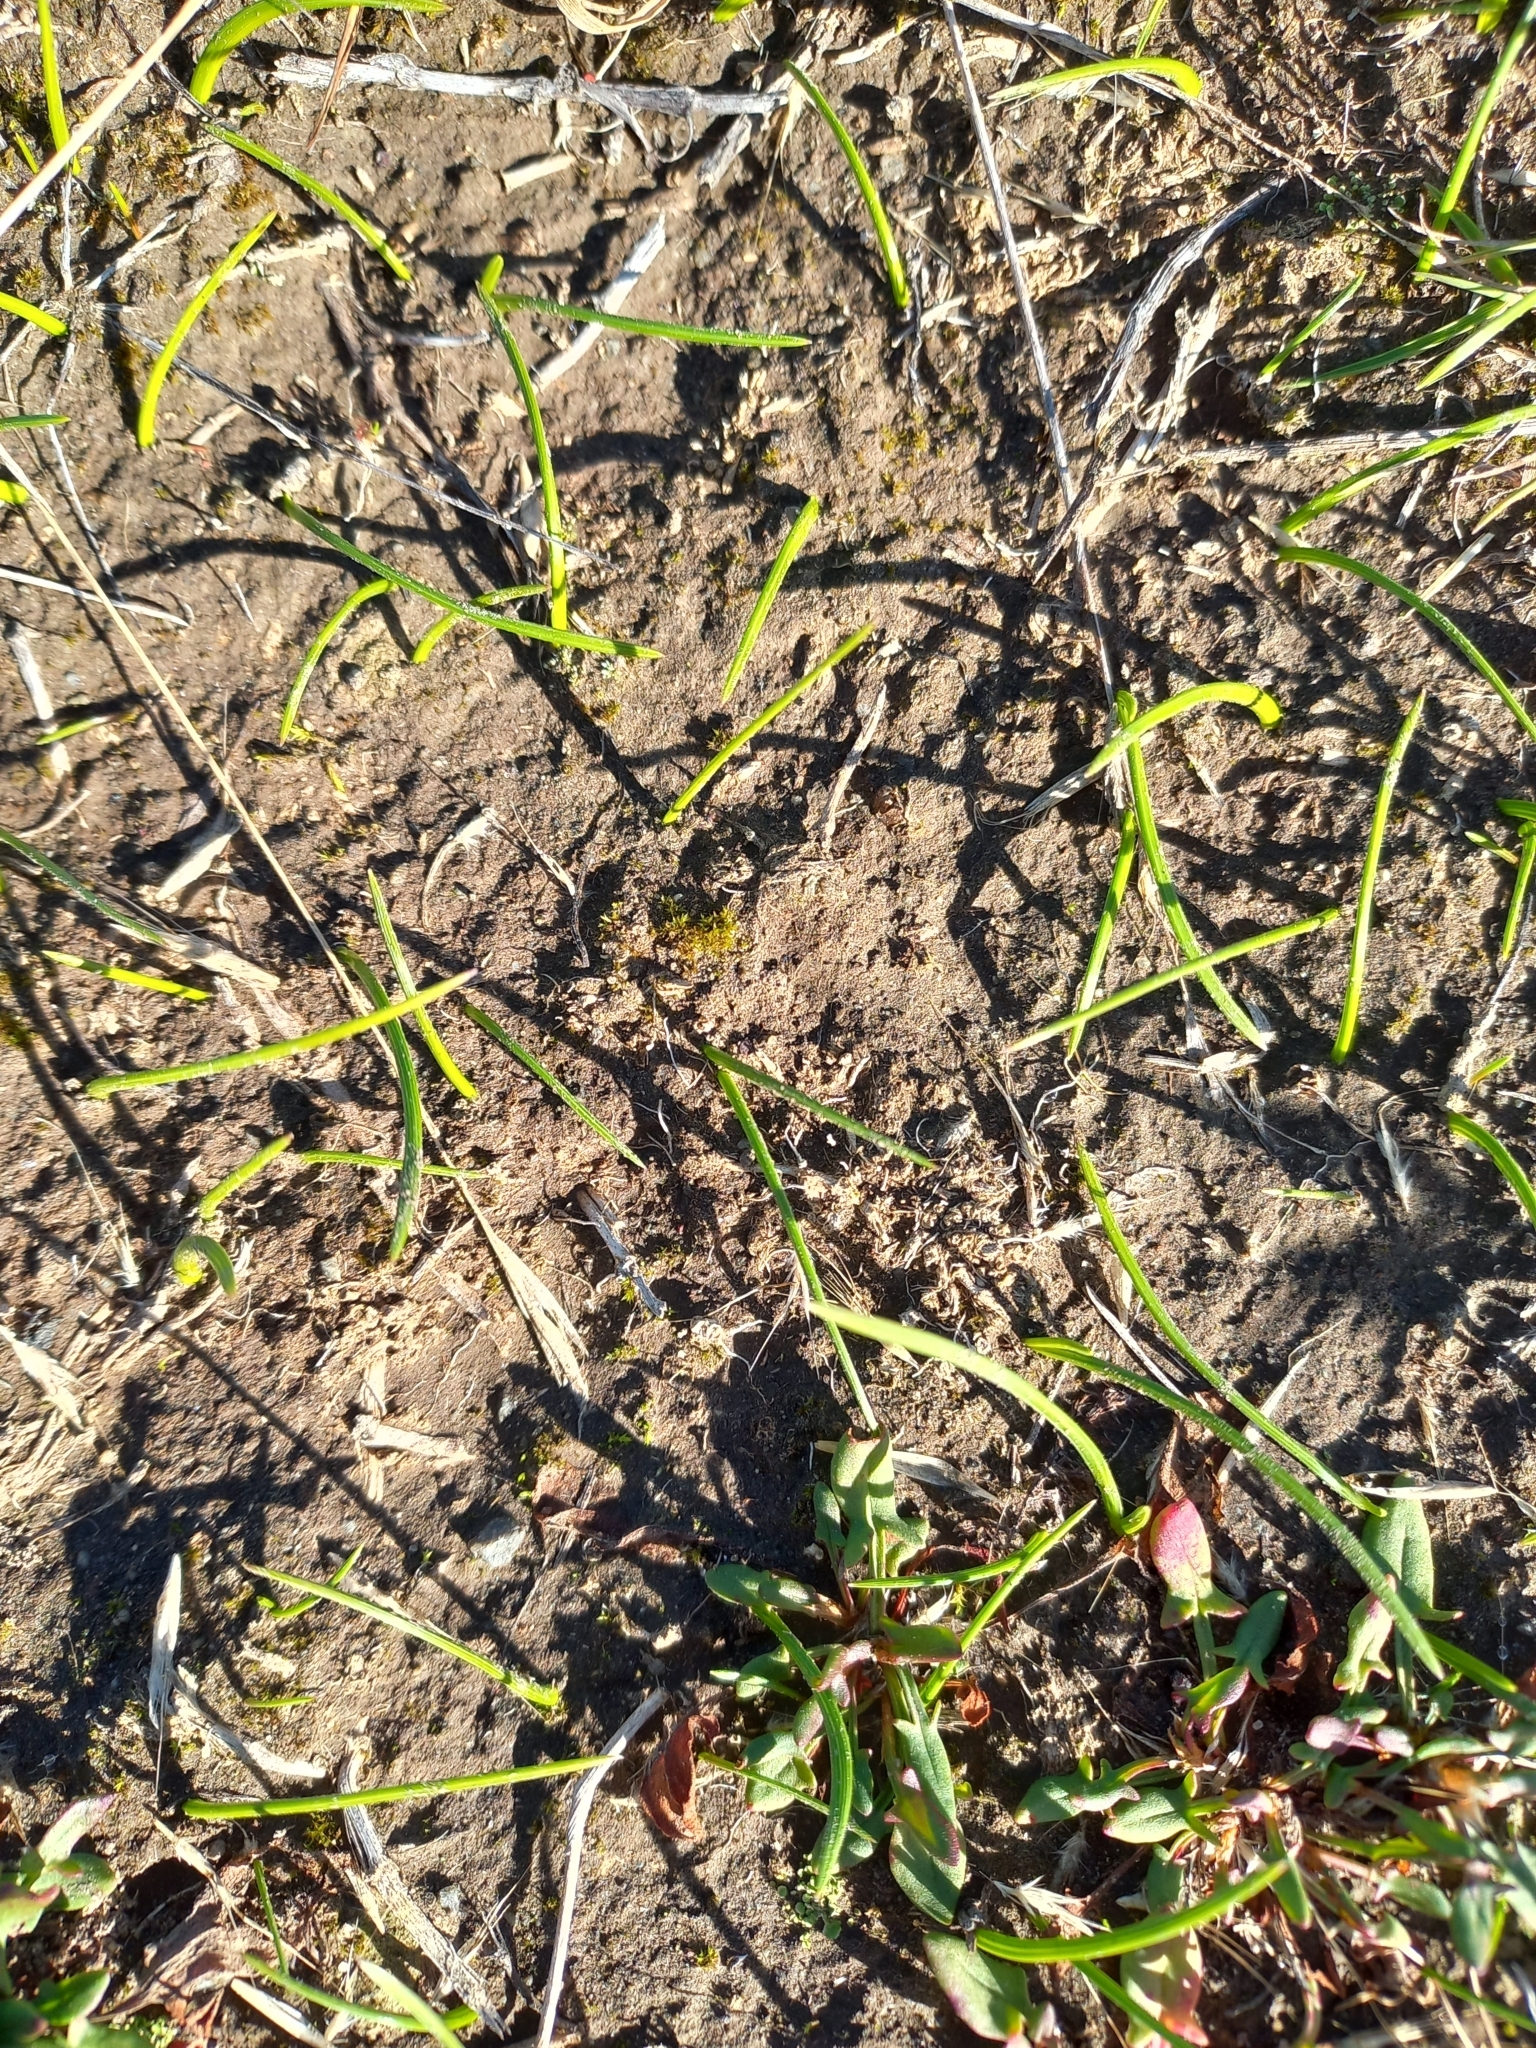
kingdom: Plantae
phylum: Tracheophyta
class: Liliopsida
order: Asparagales
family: Iridaceae
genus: Romulea
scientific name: Romulea minutiflora
